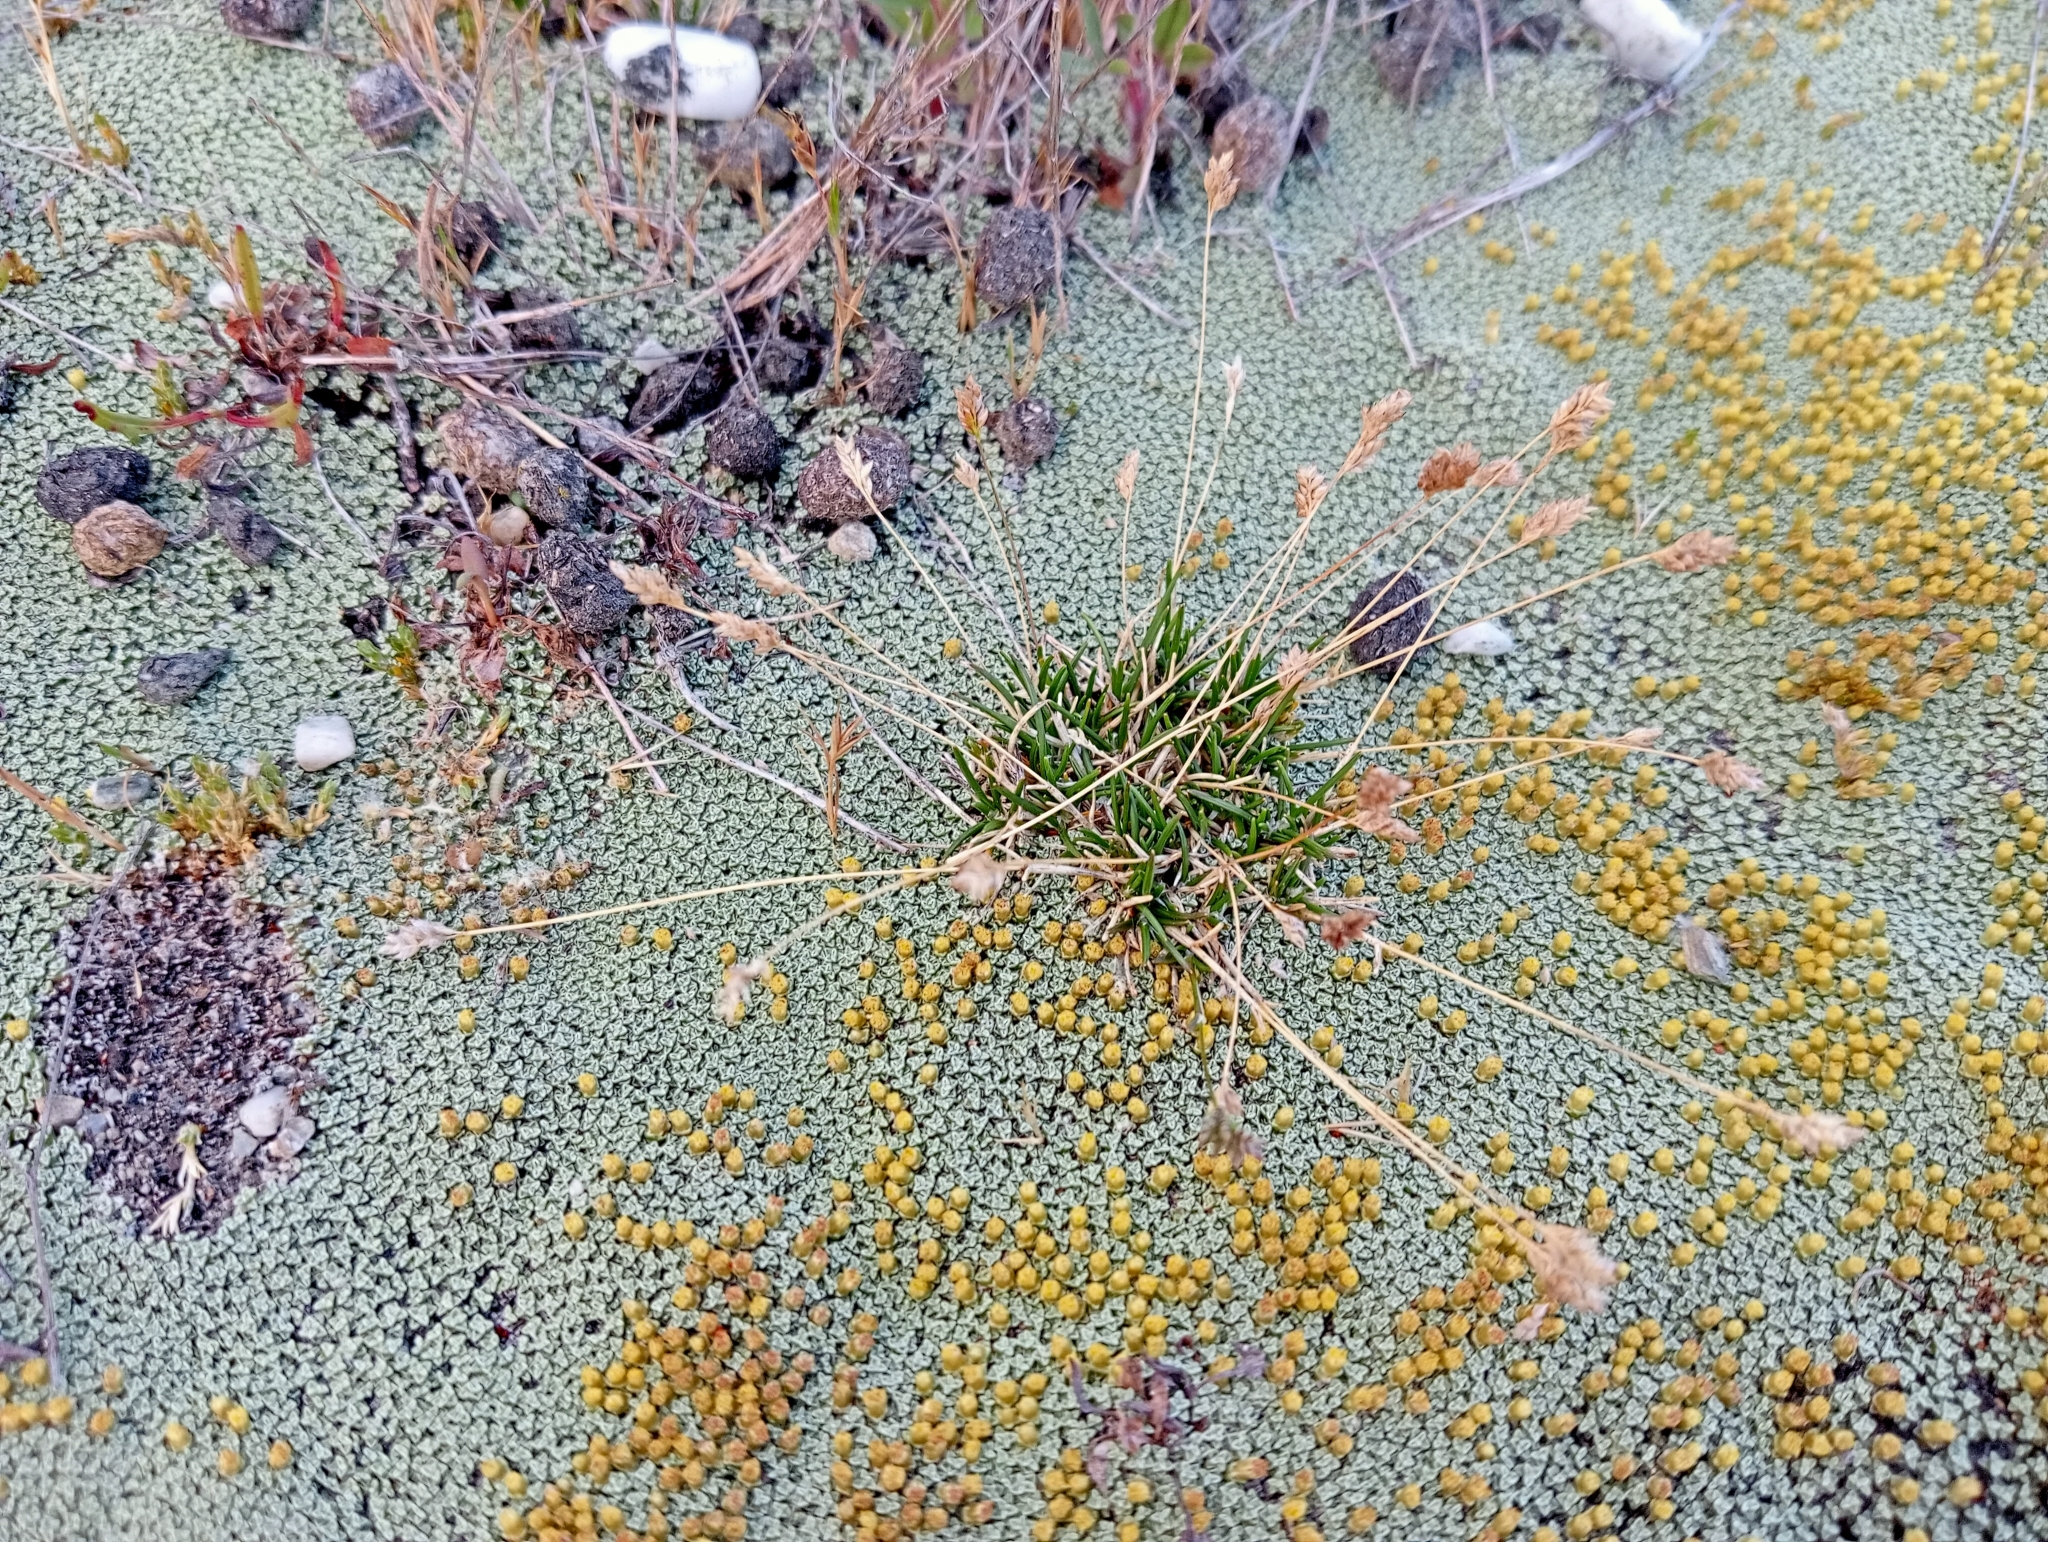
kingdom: Plantae
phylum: Tracheophyta
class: Liliopsida
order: Poales
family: Poaceae
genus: Poa
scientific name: Poa maniototo
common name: Desert poa
